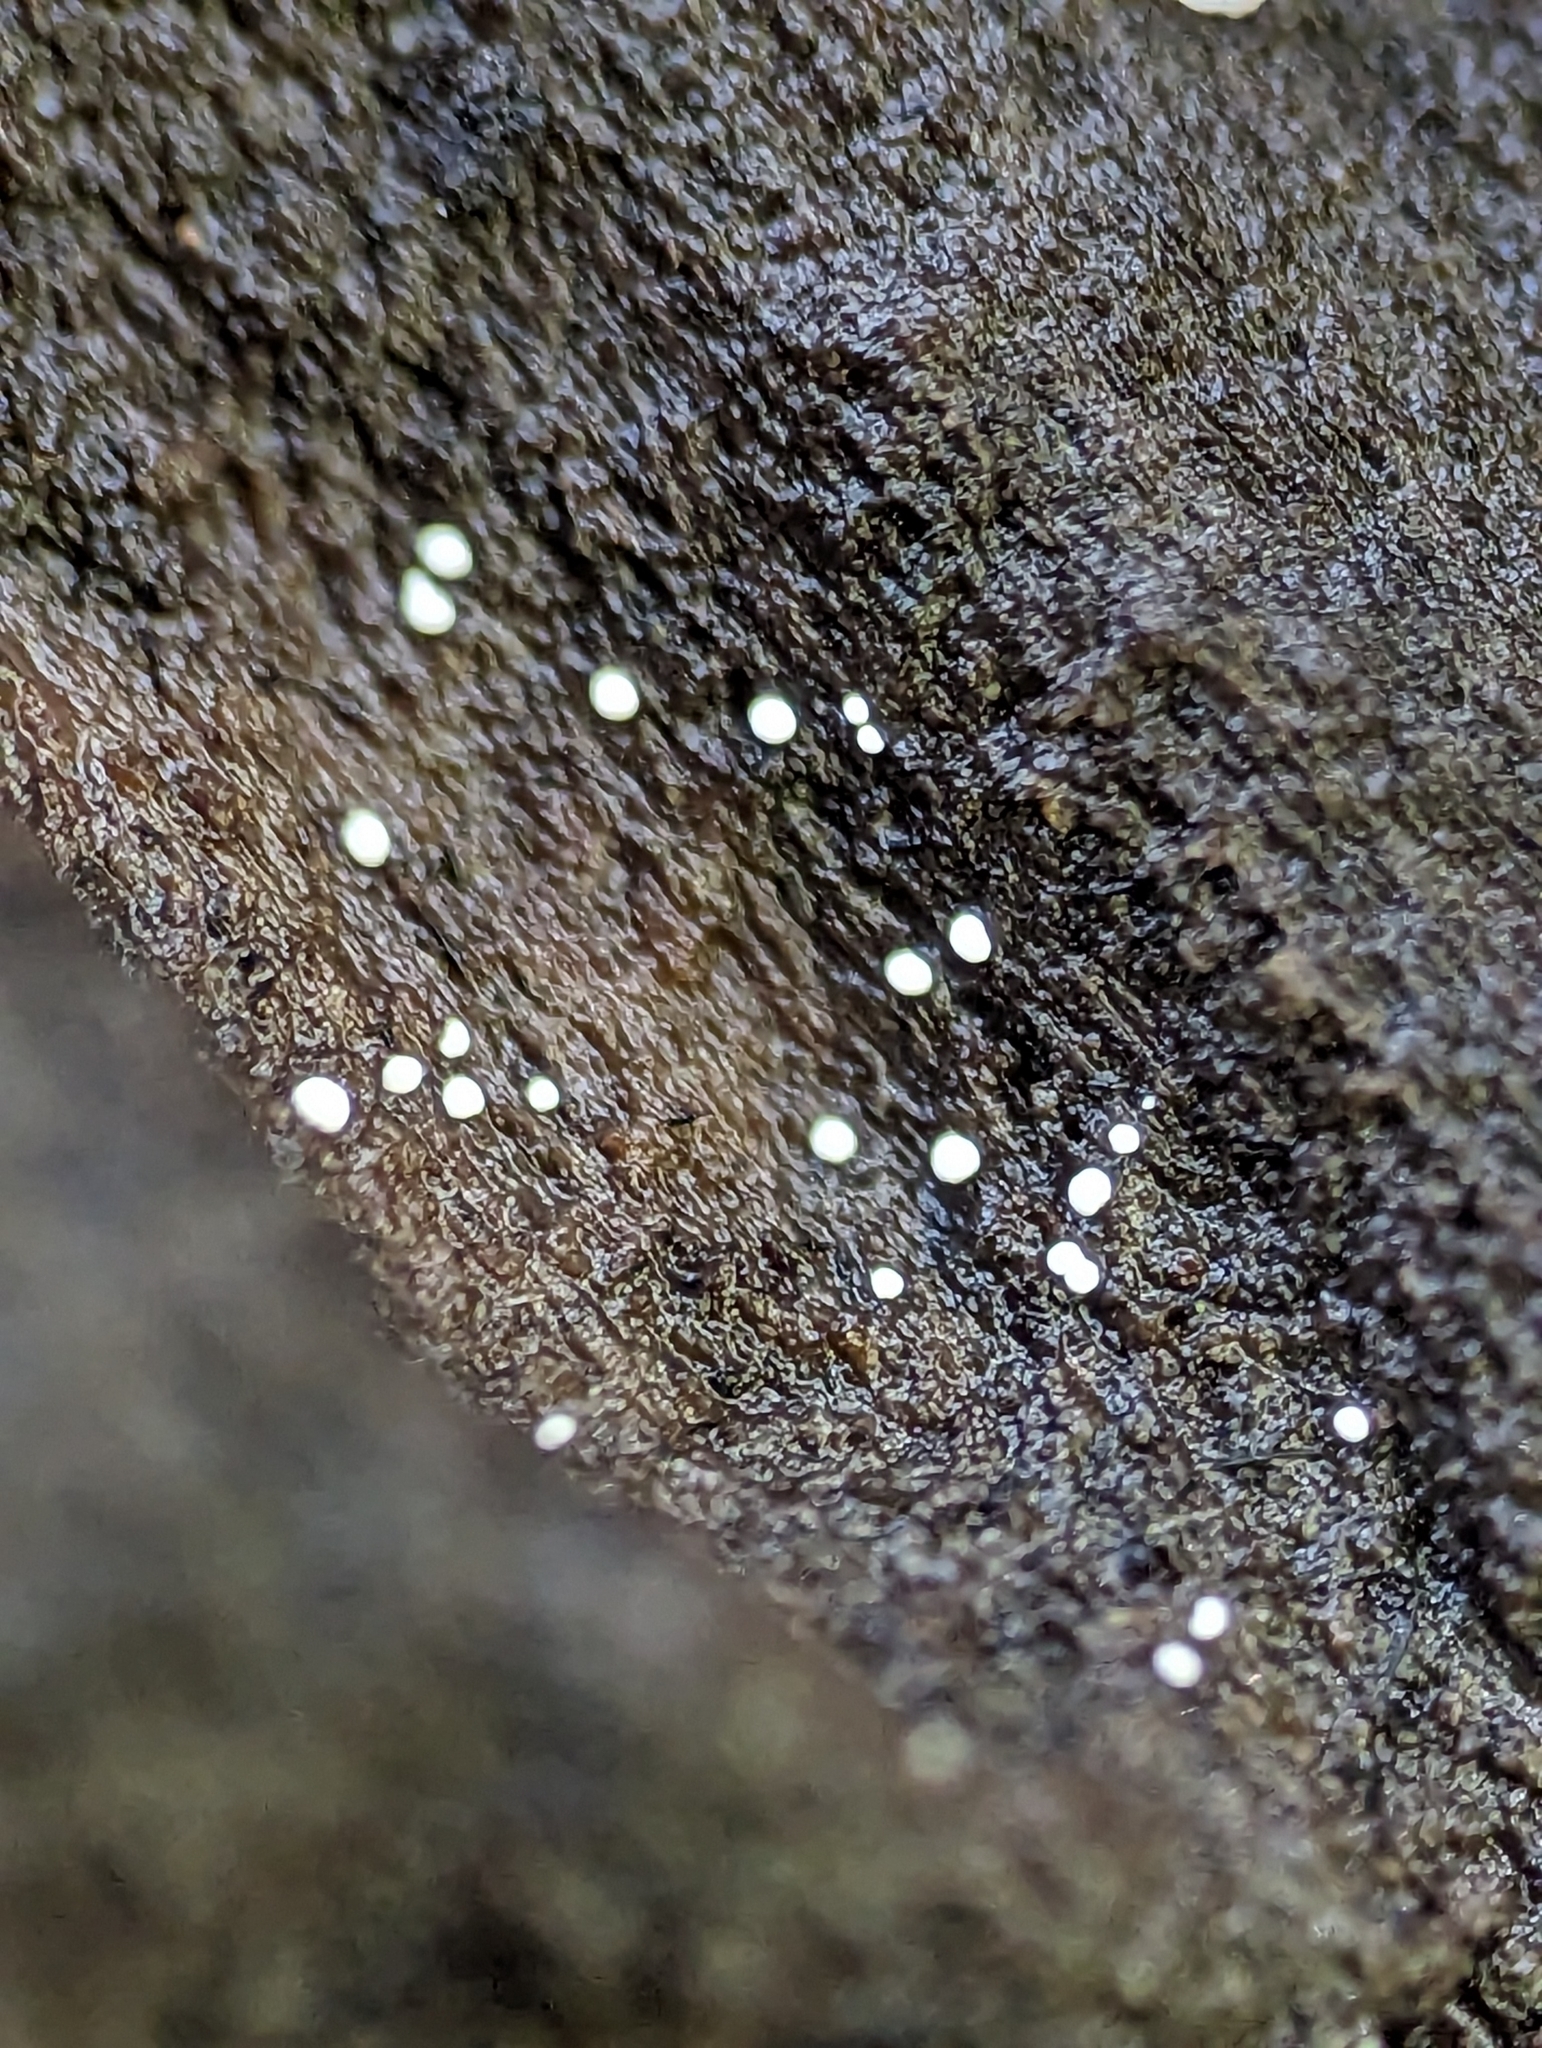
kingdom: Fungi
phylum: Basidiomycota
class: Atractiellomycetes
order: Atractiellales
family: Phleogenaceae
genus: Helicogloea
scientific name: Helicogloea compressa
